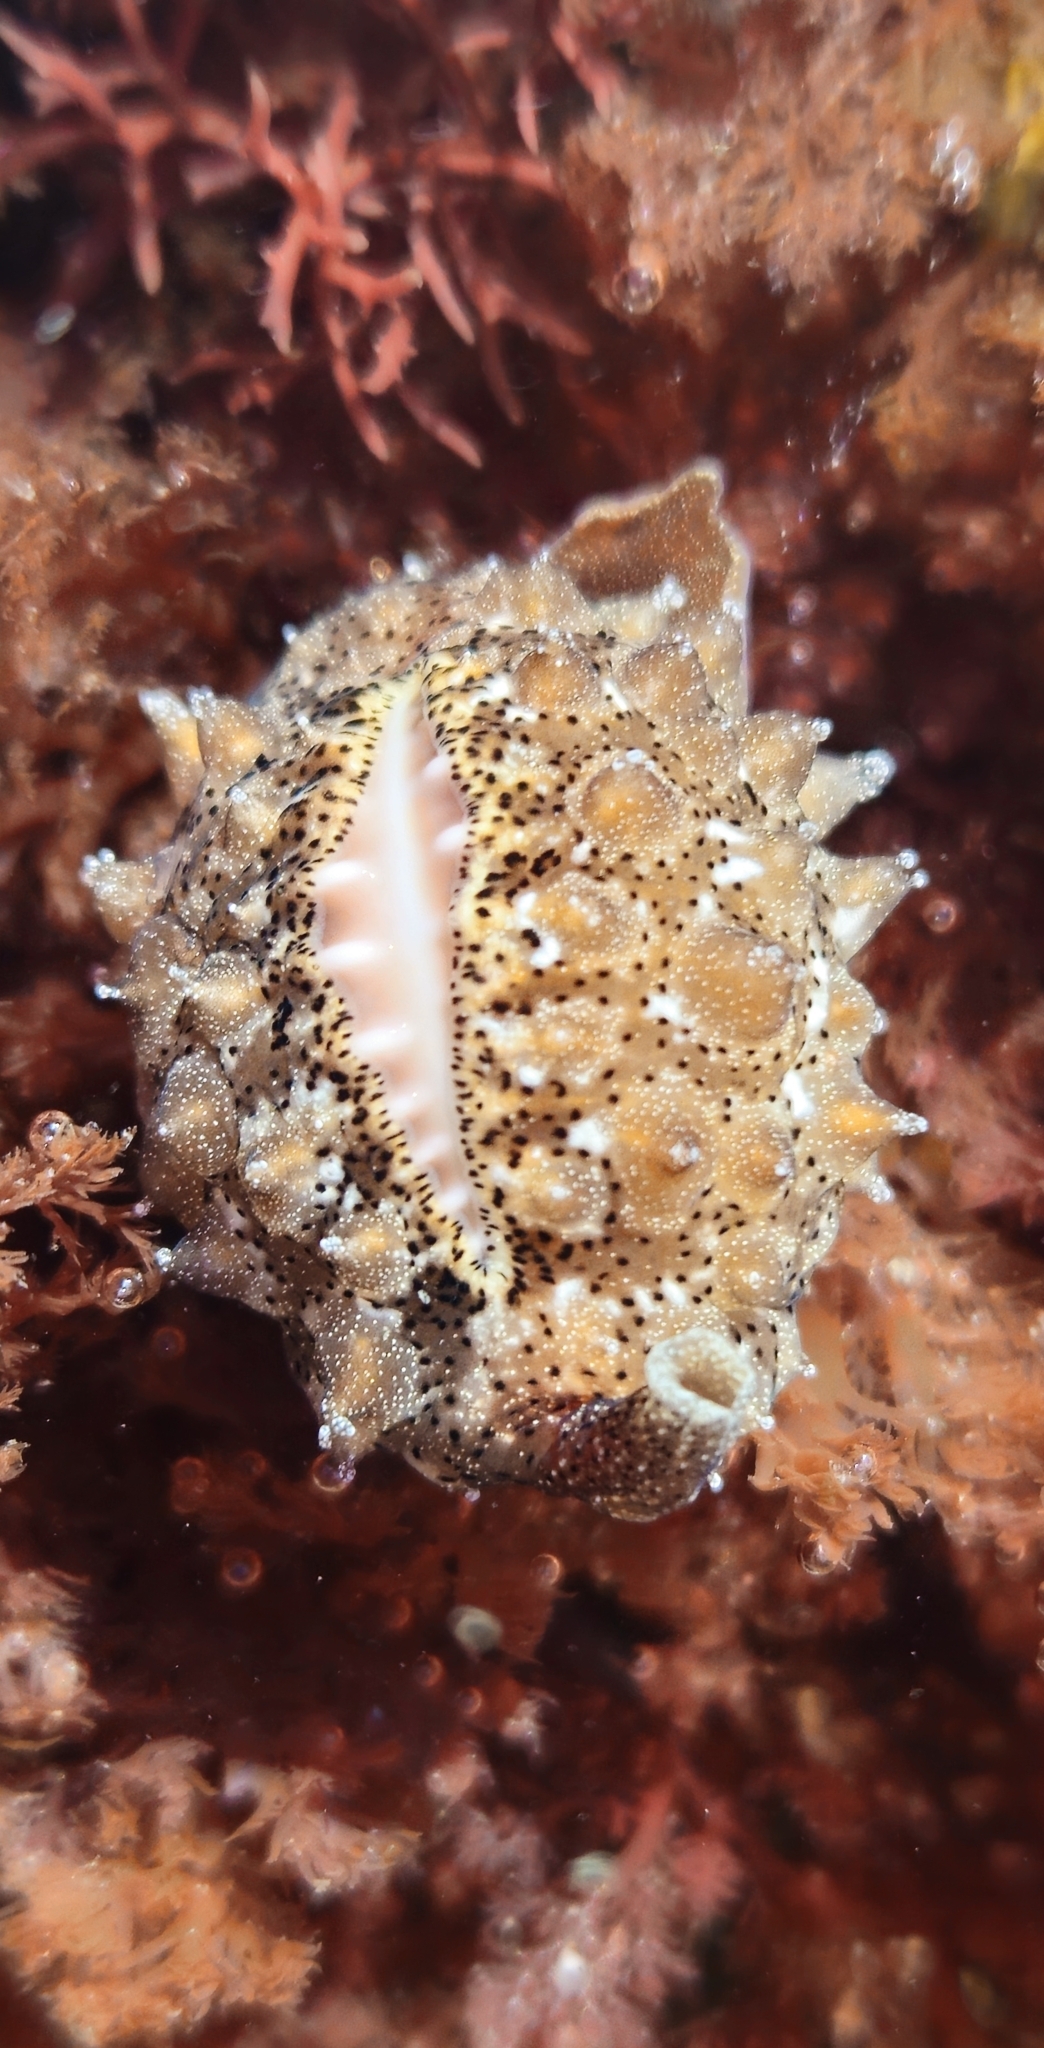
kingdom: Animalia
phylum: Mollusca
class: Gastropoda
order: Littorinimorpha
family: Triviidae
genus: Pusula
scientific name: Pusula solandri
